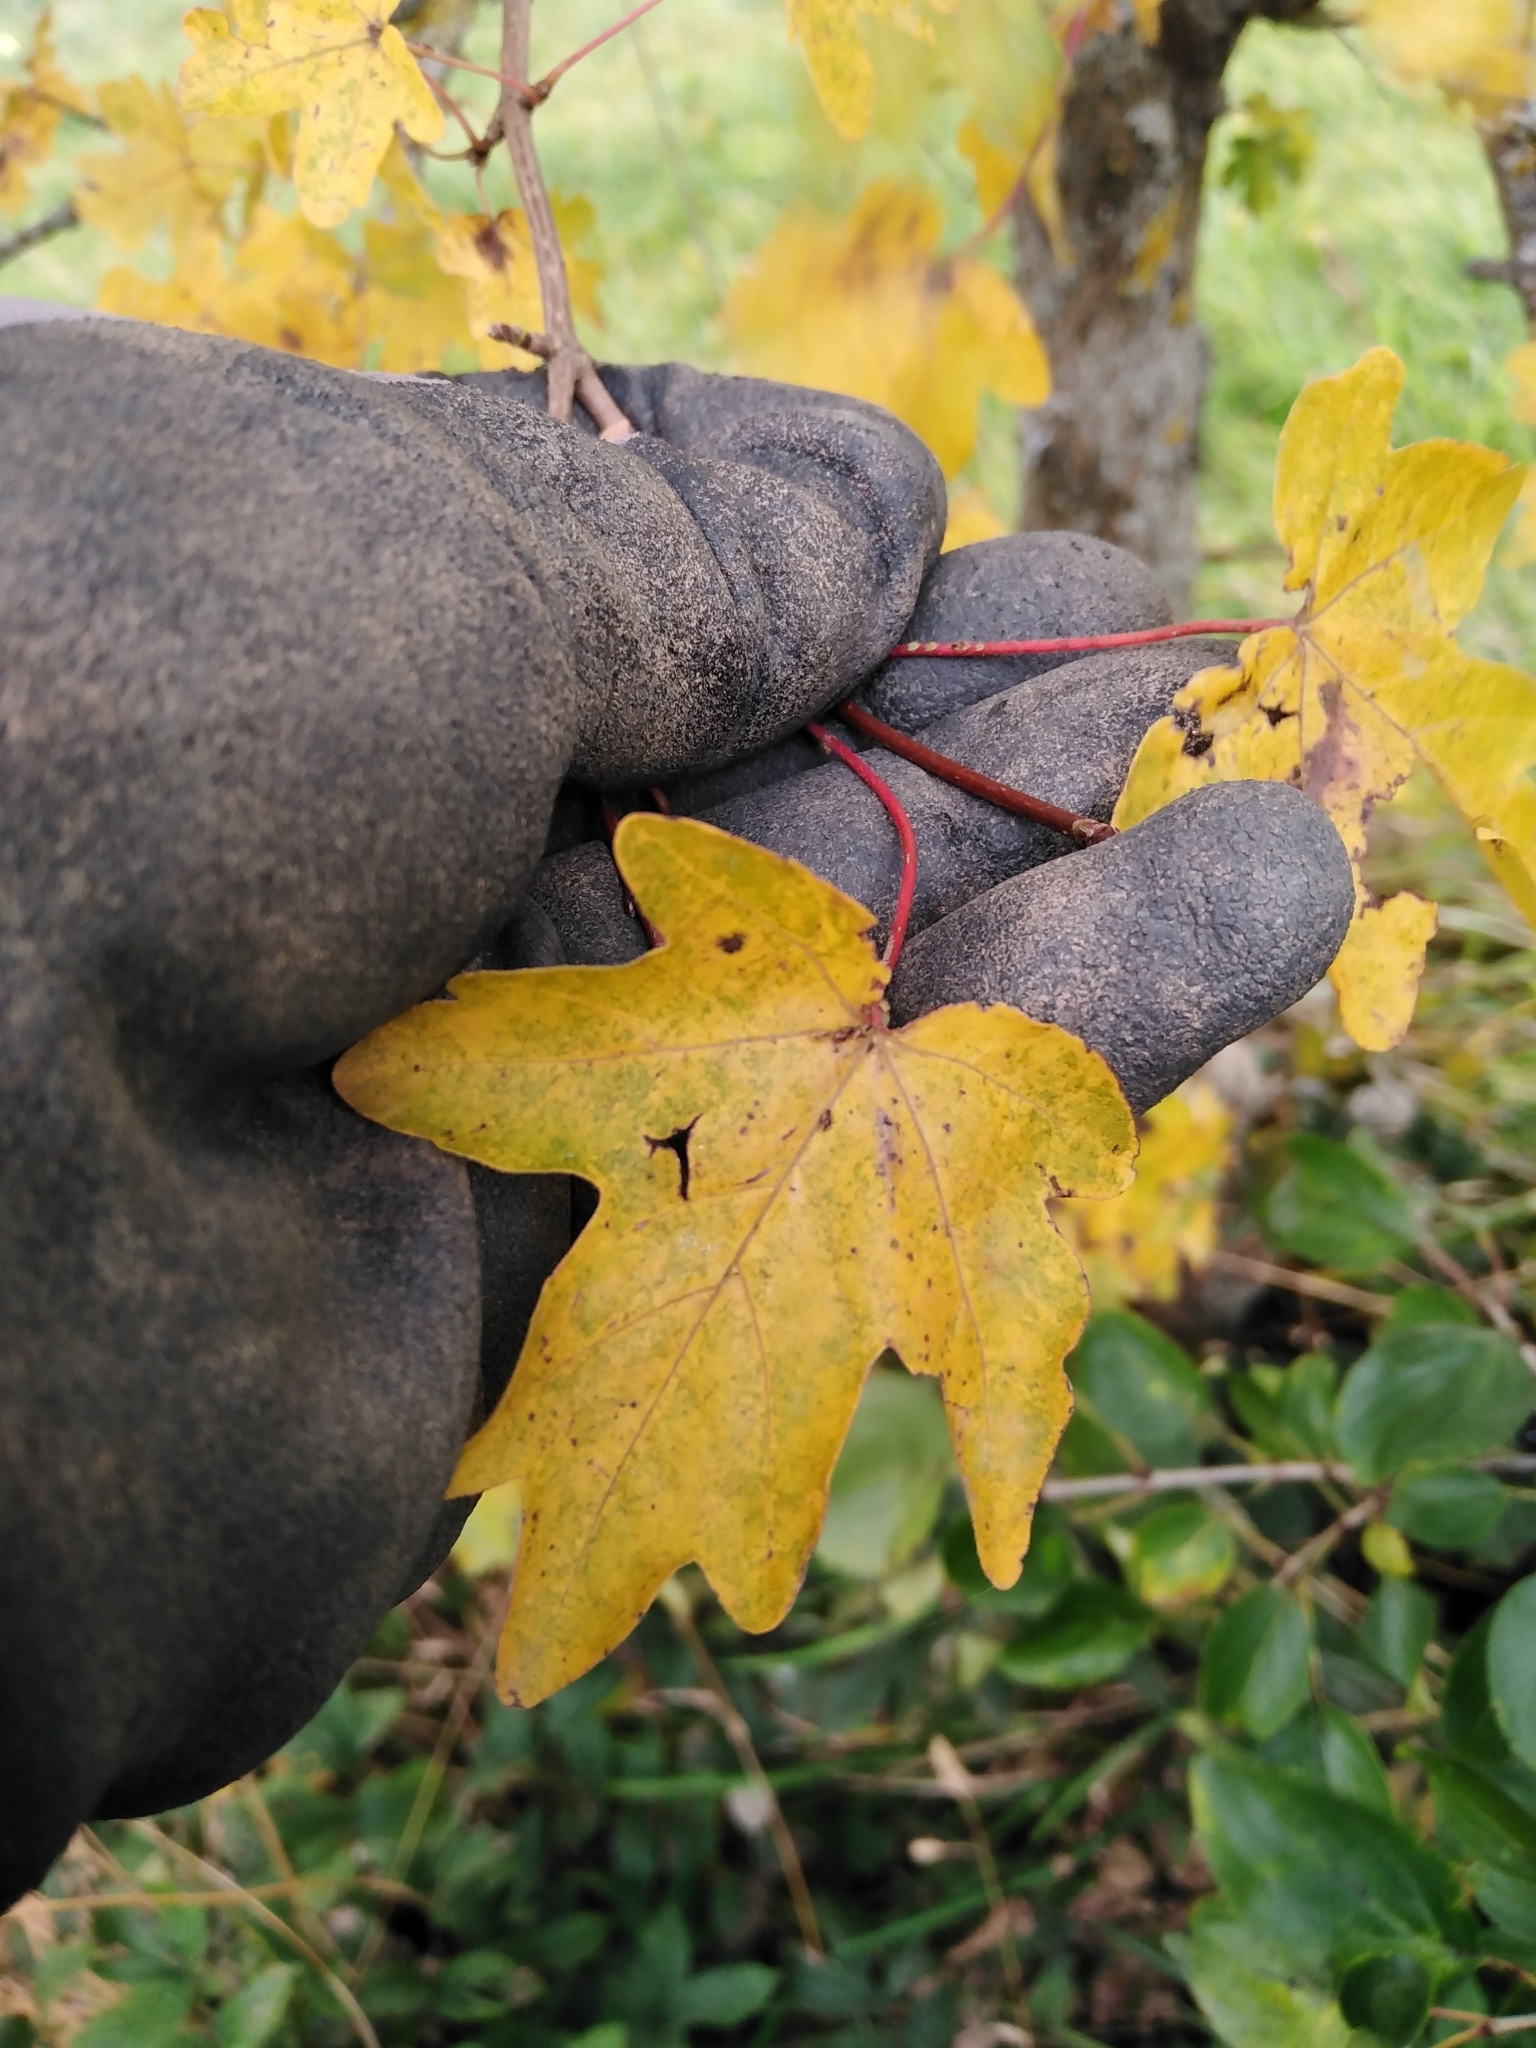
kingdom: Plantae
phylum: Tracheophyta
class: Magnoliopsida
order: Sapindales
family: Sapindaceae
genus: Acer
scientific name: Acer campestre
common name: Field maple
